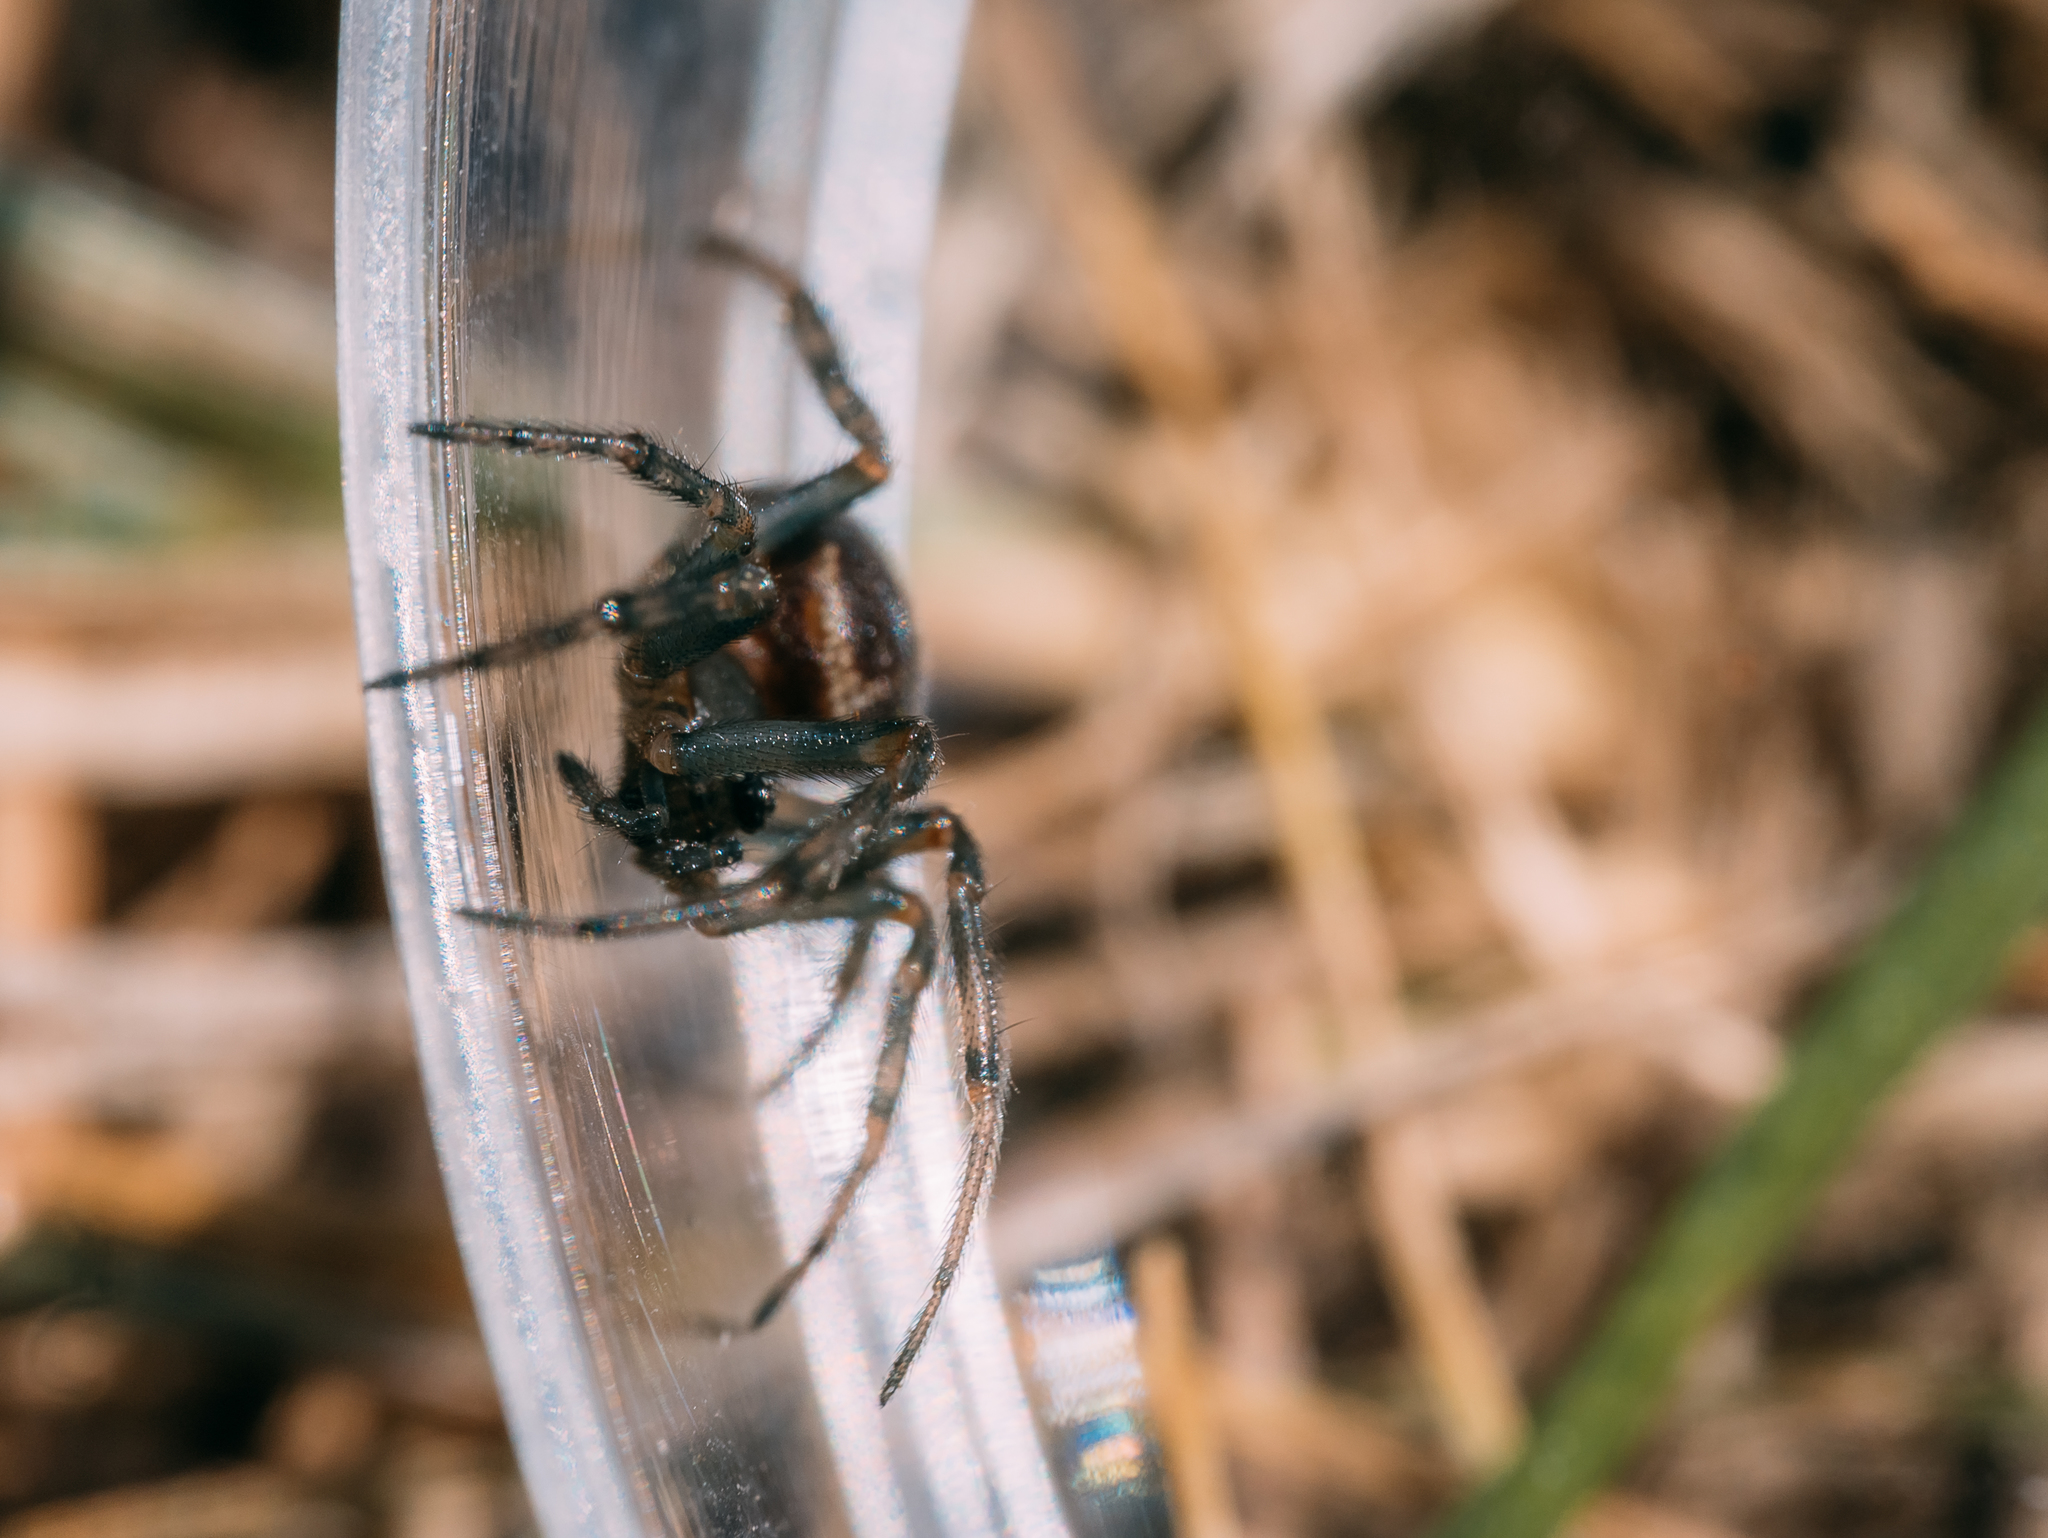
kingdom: Animalia
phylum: Arthropoda
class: Arachnida
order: Araneae
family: Theridiidae
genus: Steatoda
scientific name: Steatoda bipunctata
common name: False widow
